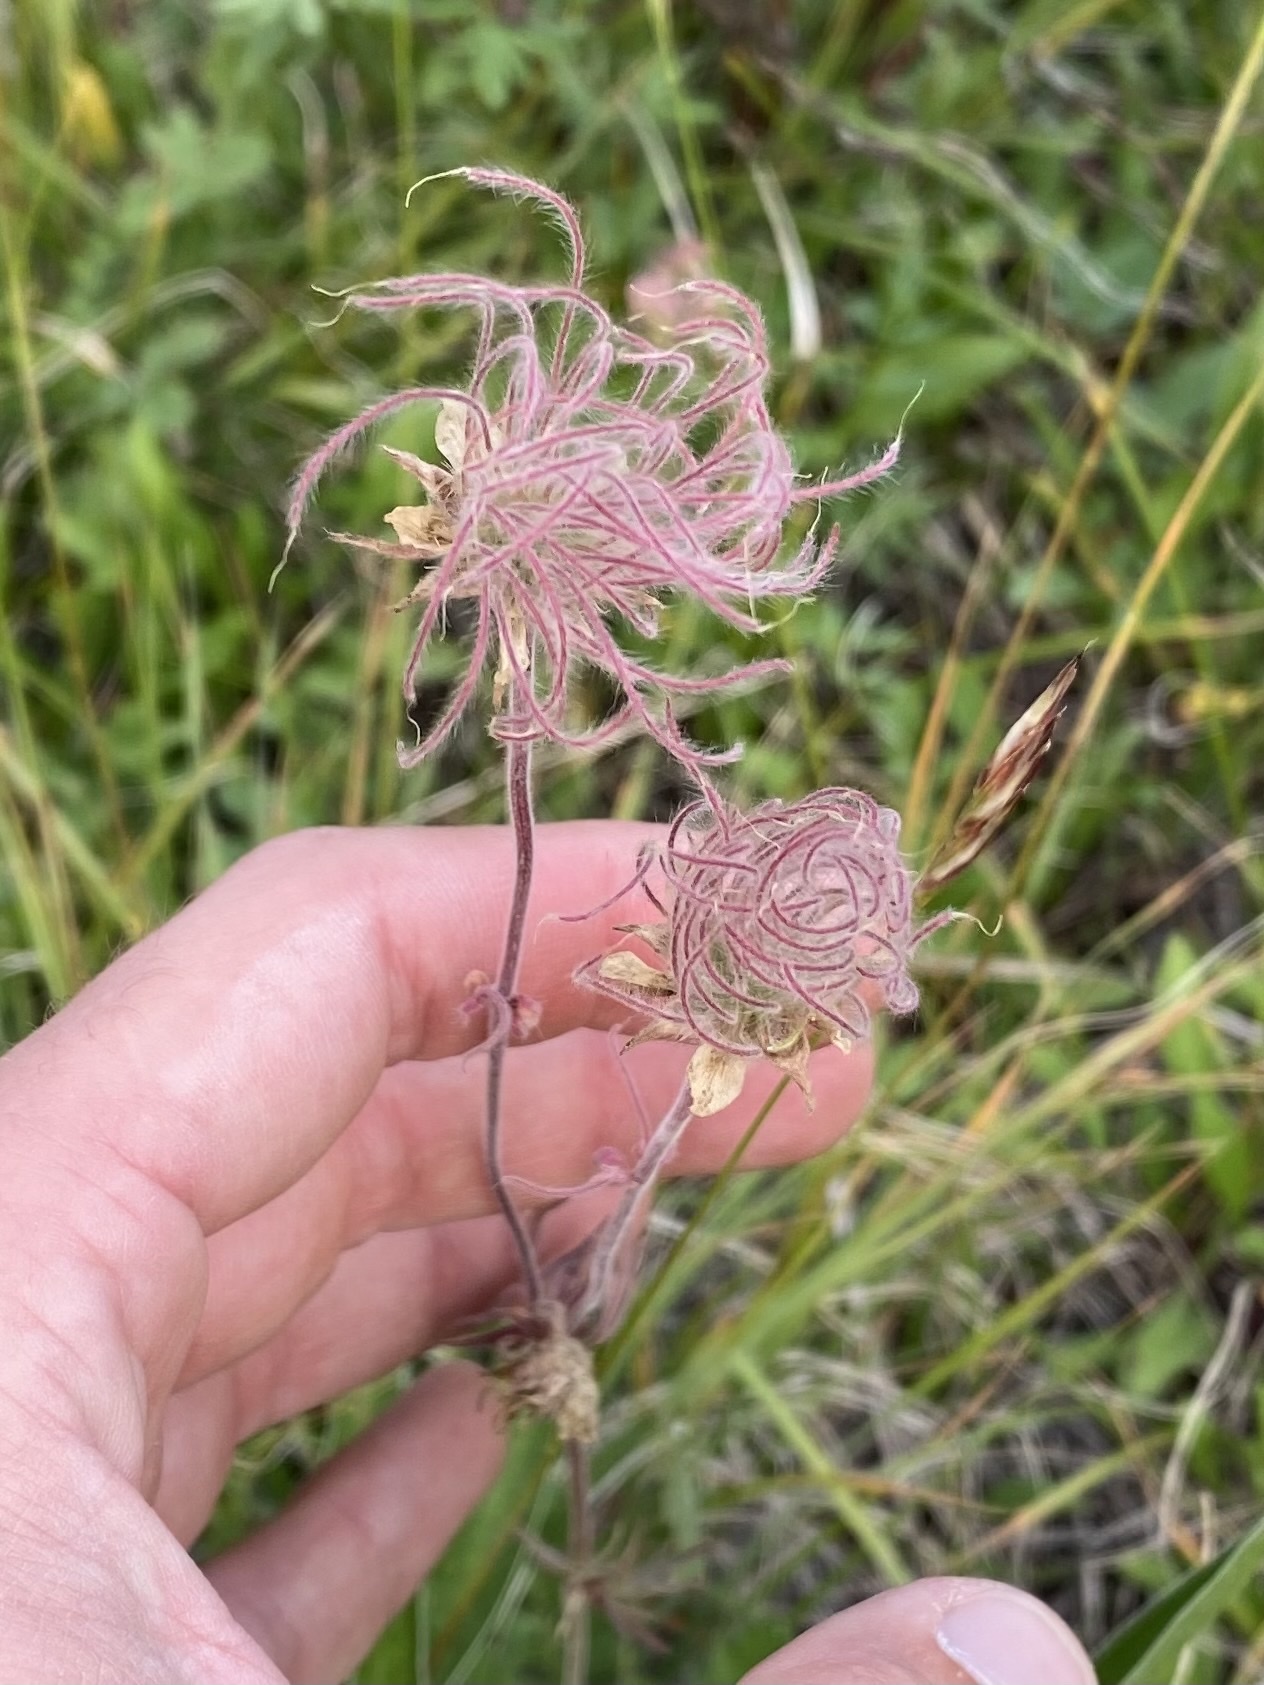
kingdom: Plantae
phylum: Tracheophyta
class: Magnoliopsida
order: Rosales
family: Rosaceae
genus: Geum
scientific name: Geum triflorum
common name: Old man's whiskers
